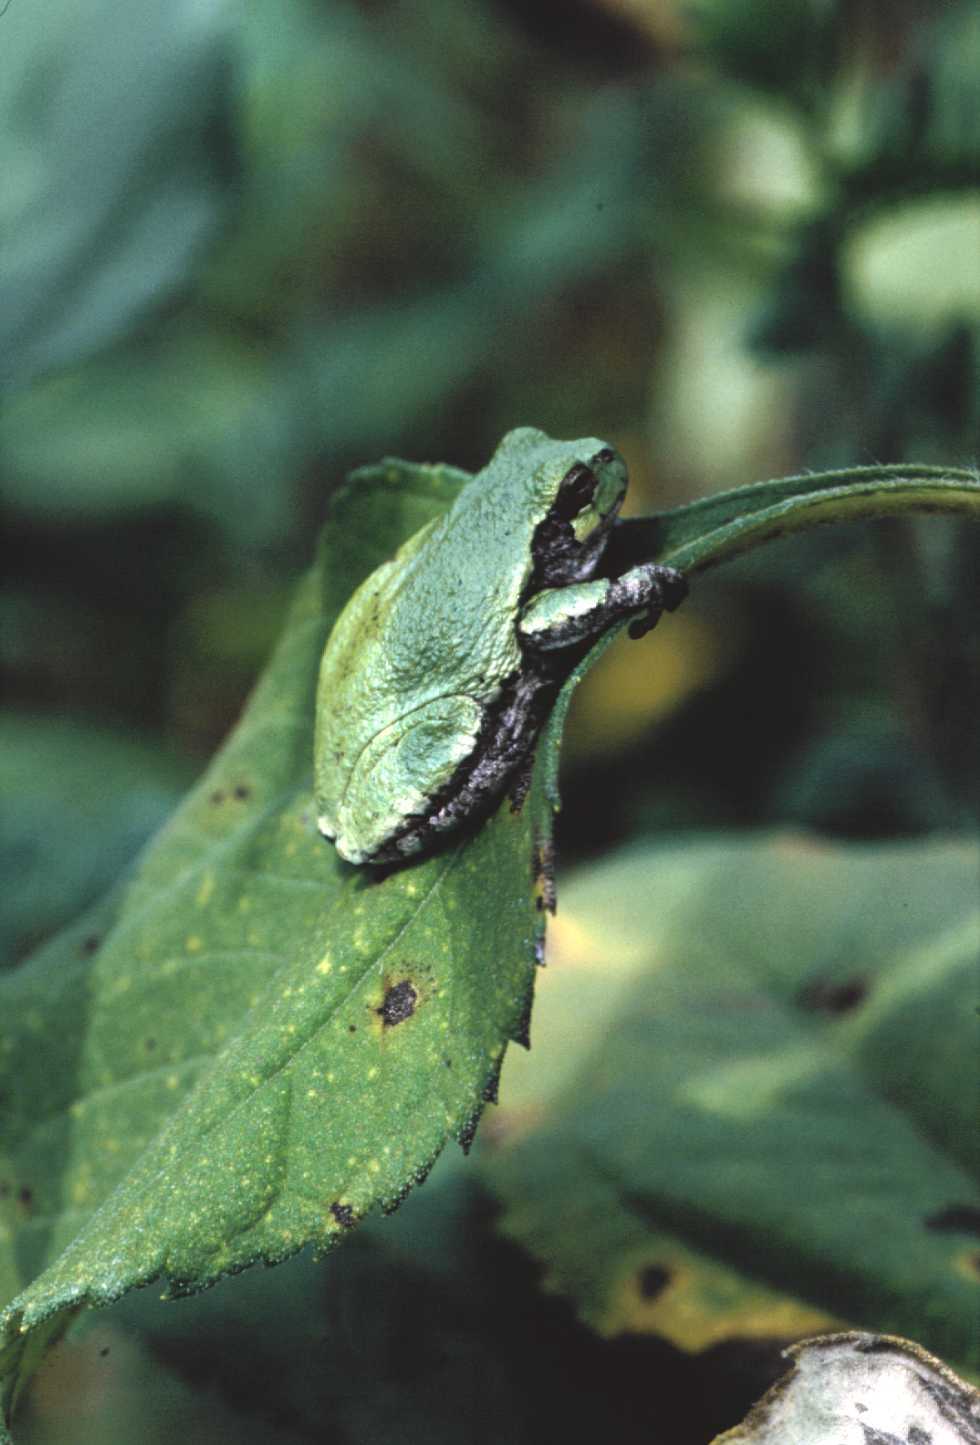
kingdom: Animalia
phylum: Chordata
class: Amphibia
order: Anura
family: Hylidae
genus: Dryophytes
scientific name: Dryophytes versicolor
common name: Gray treefrog
